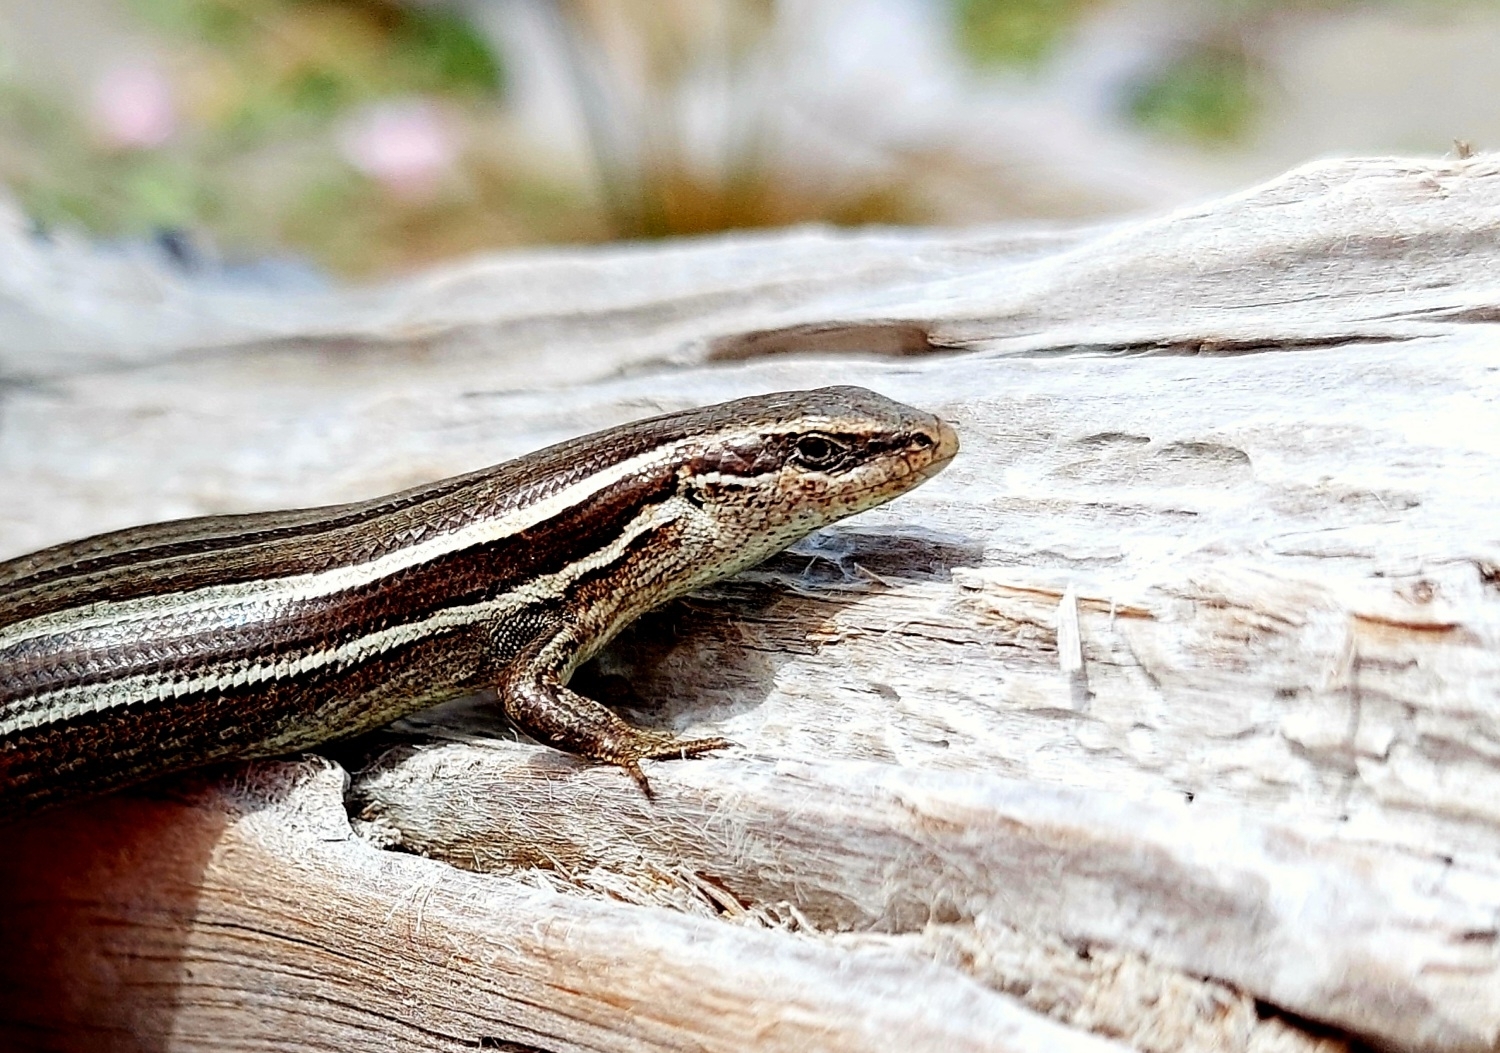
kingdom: Animalia
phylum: Chordata
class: Squamata
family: Scincidae
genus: Oligosoma
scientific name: Oligosoma maccanni
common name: Mccann’s skink
